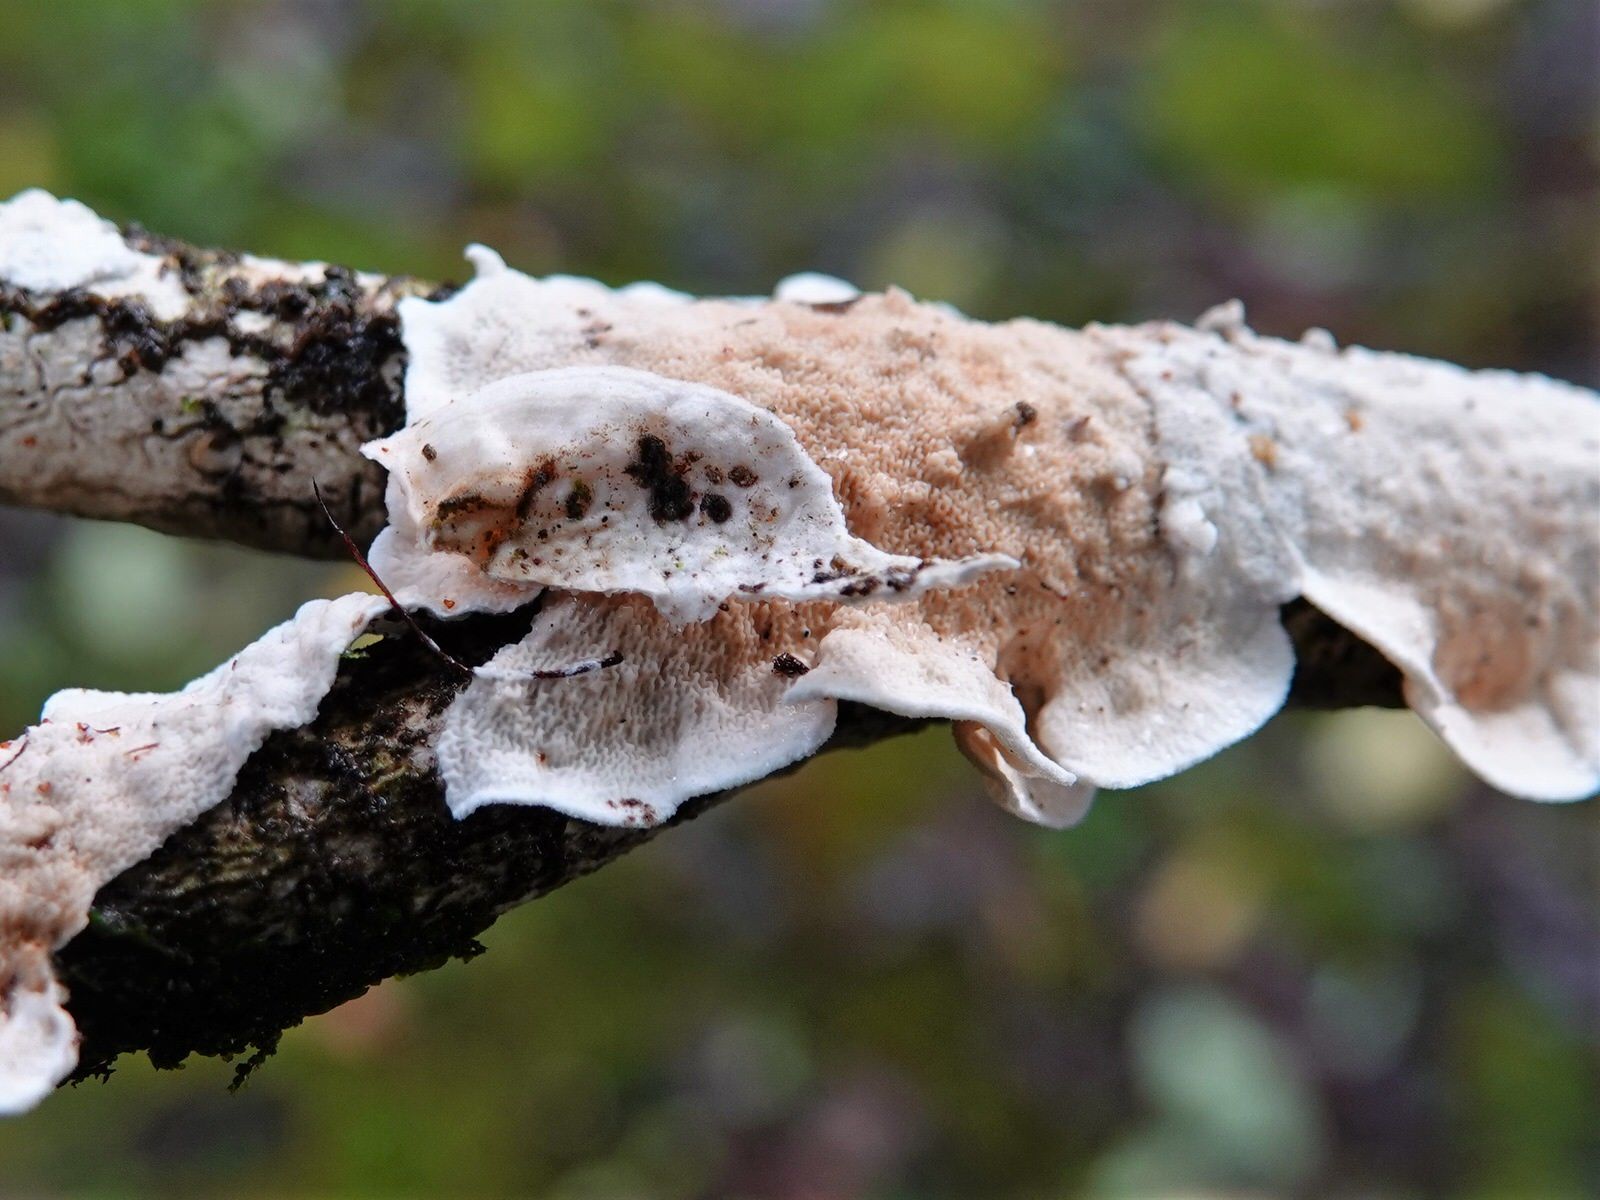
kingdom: Fungi
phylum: Basidiomycota
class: Agaricomycetes
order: Polyporales
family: Irpicaceae
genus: Byssomerulius
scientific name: Byssomerulius corium
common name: Netted crust
